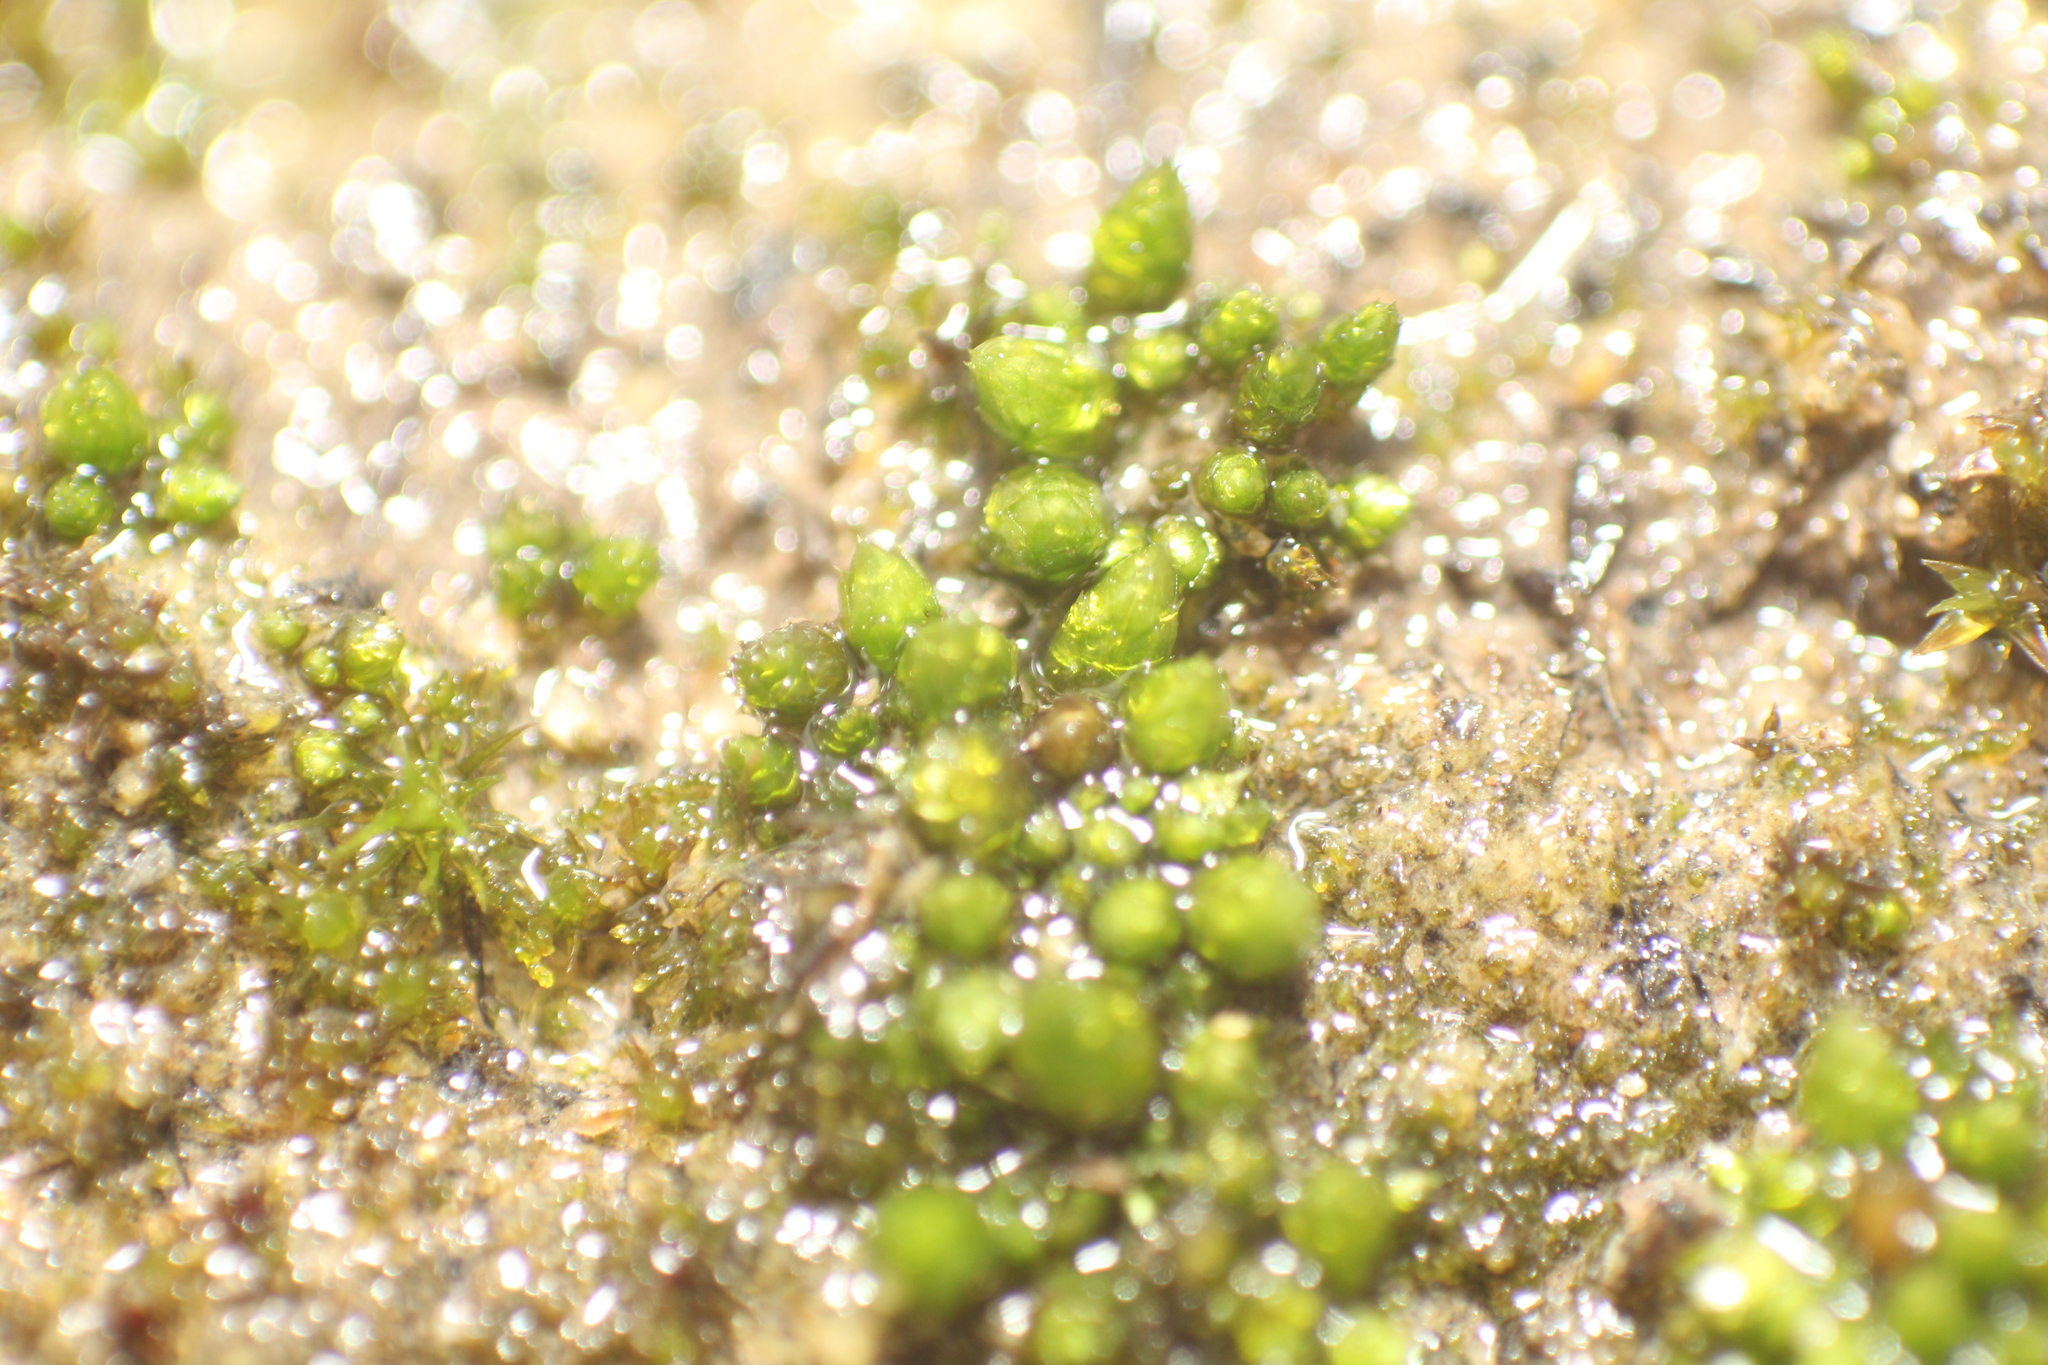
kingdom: Plantae
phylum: Bryophyta
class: Bryopsida
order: Gigaspermales
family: Gigaspermaceae
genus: Gigaspermum
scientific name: Gigaspermum repens
